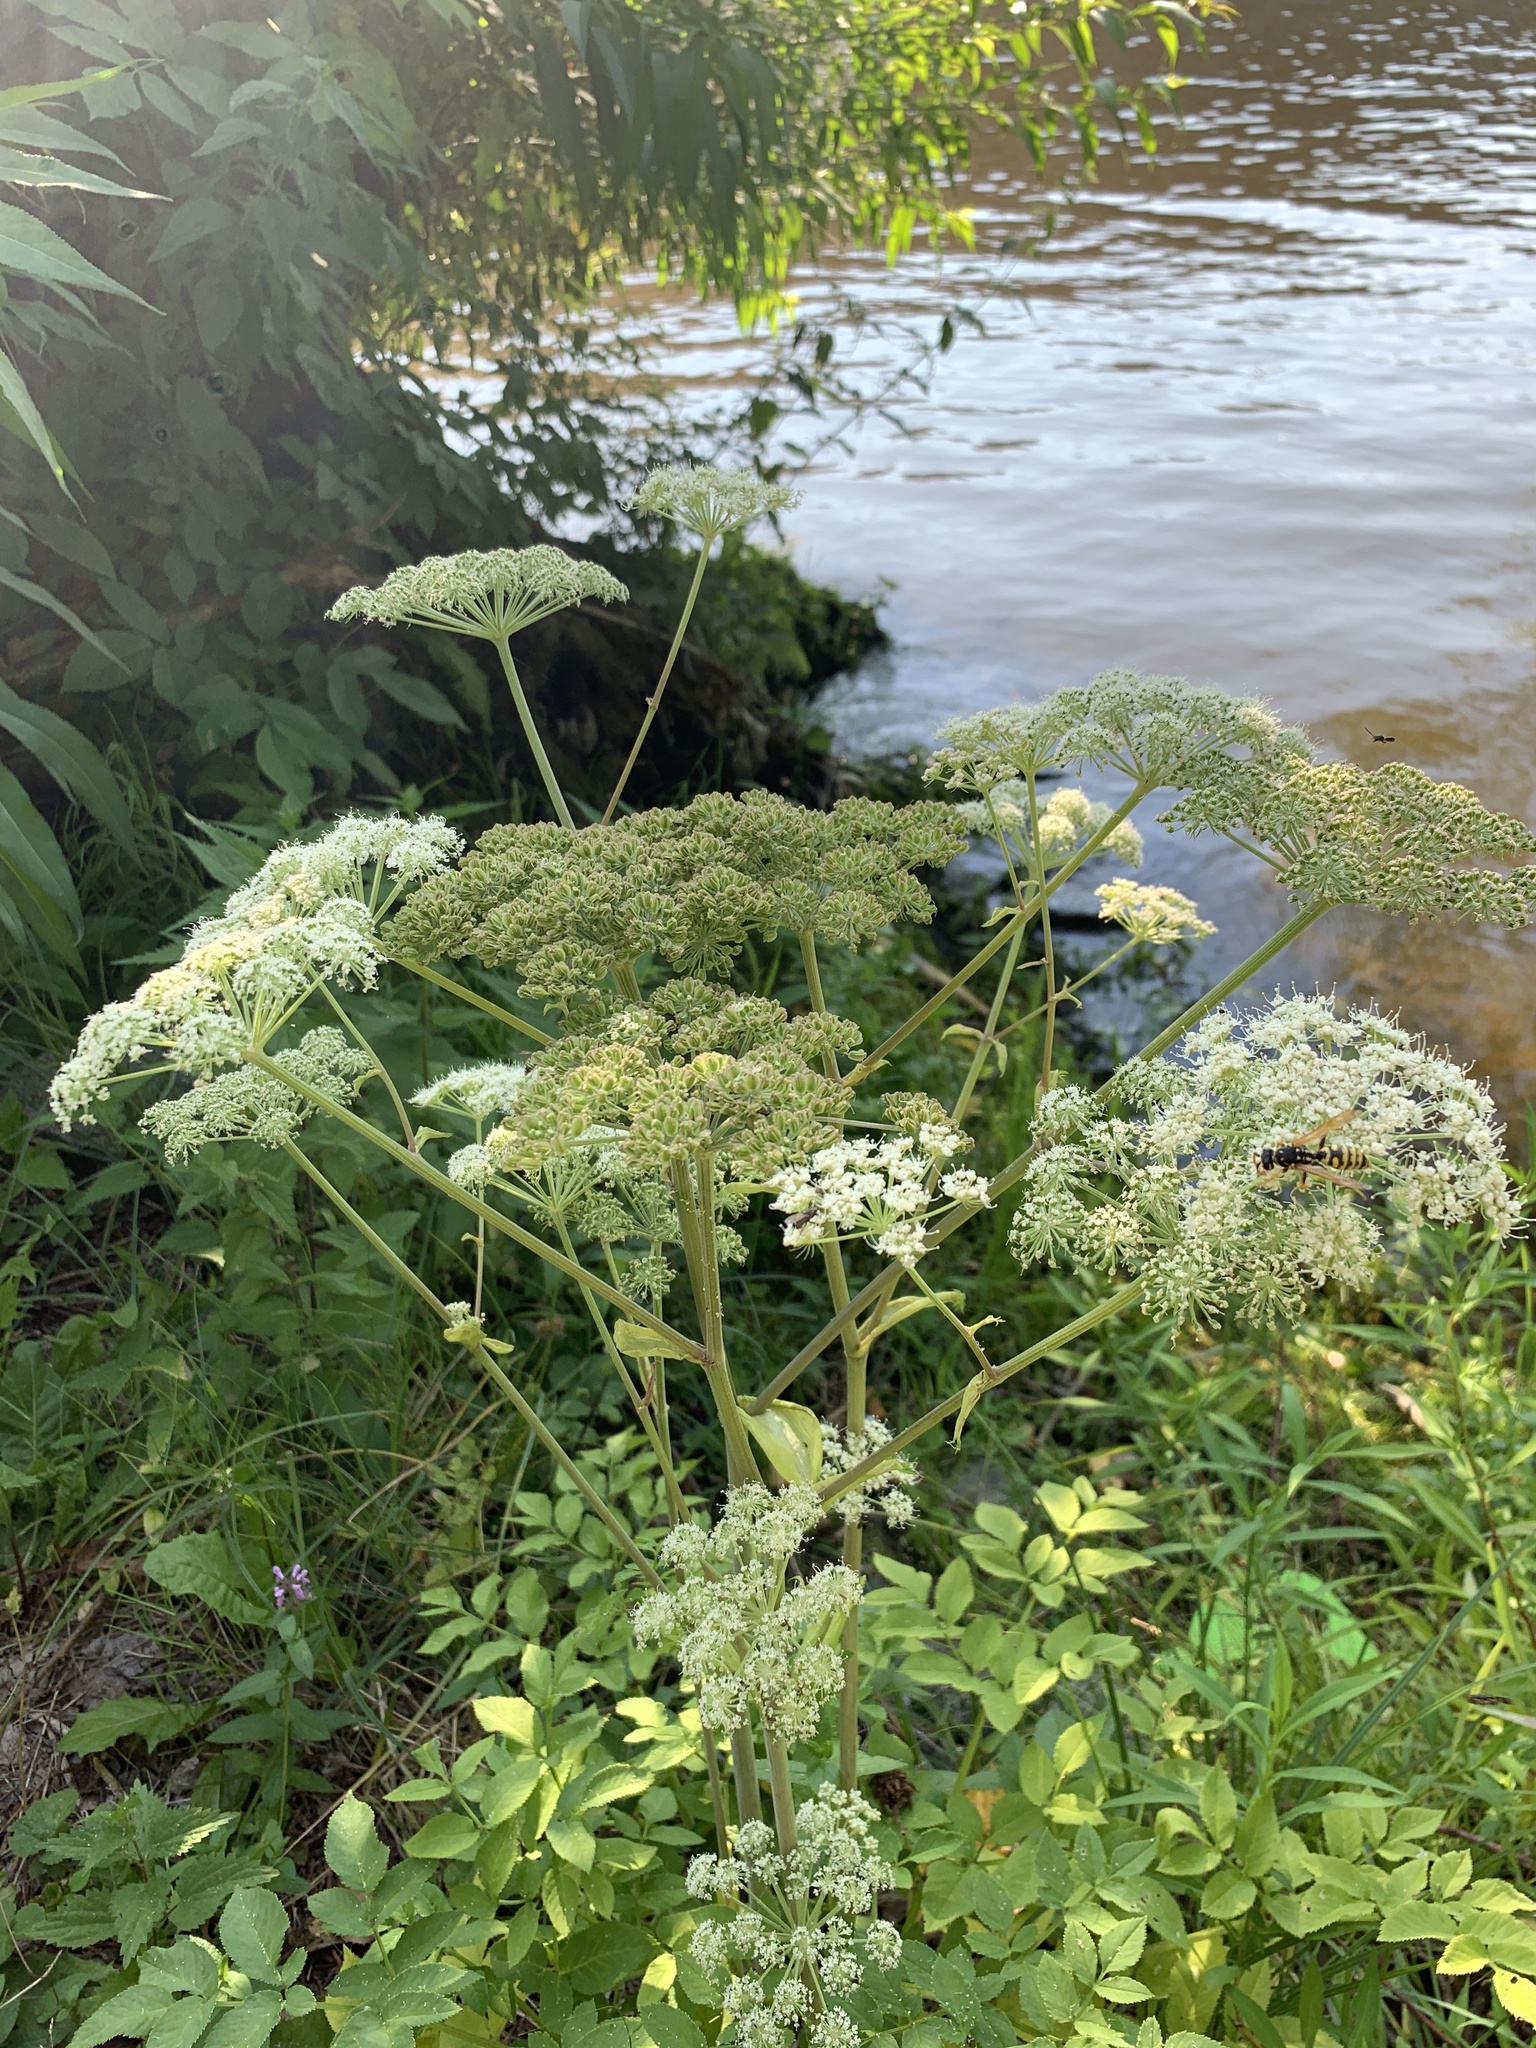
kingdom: Plantae
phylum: Tracheophyta
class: Magnoliopsida
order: Apiales
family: Apiaceae
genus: Angelica
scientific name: Angelica sylvestris
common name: Wild angelica
